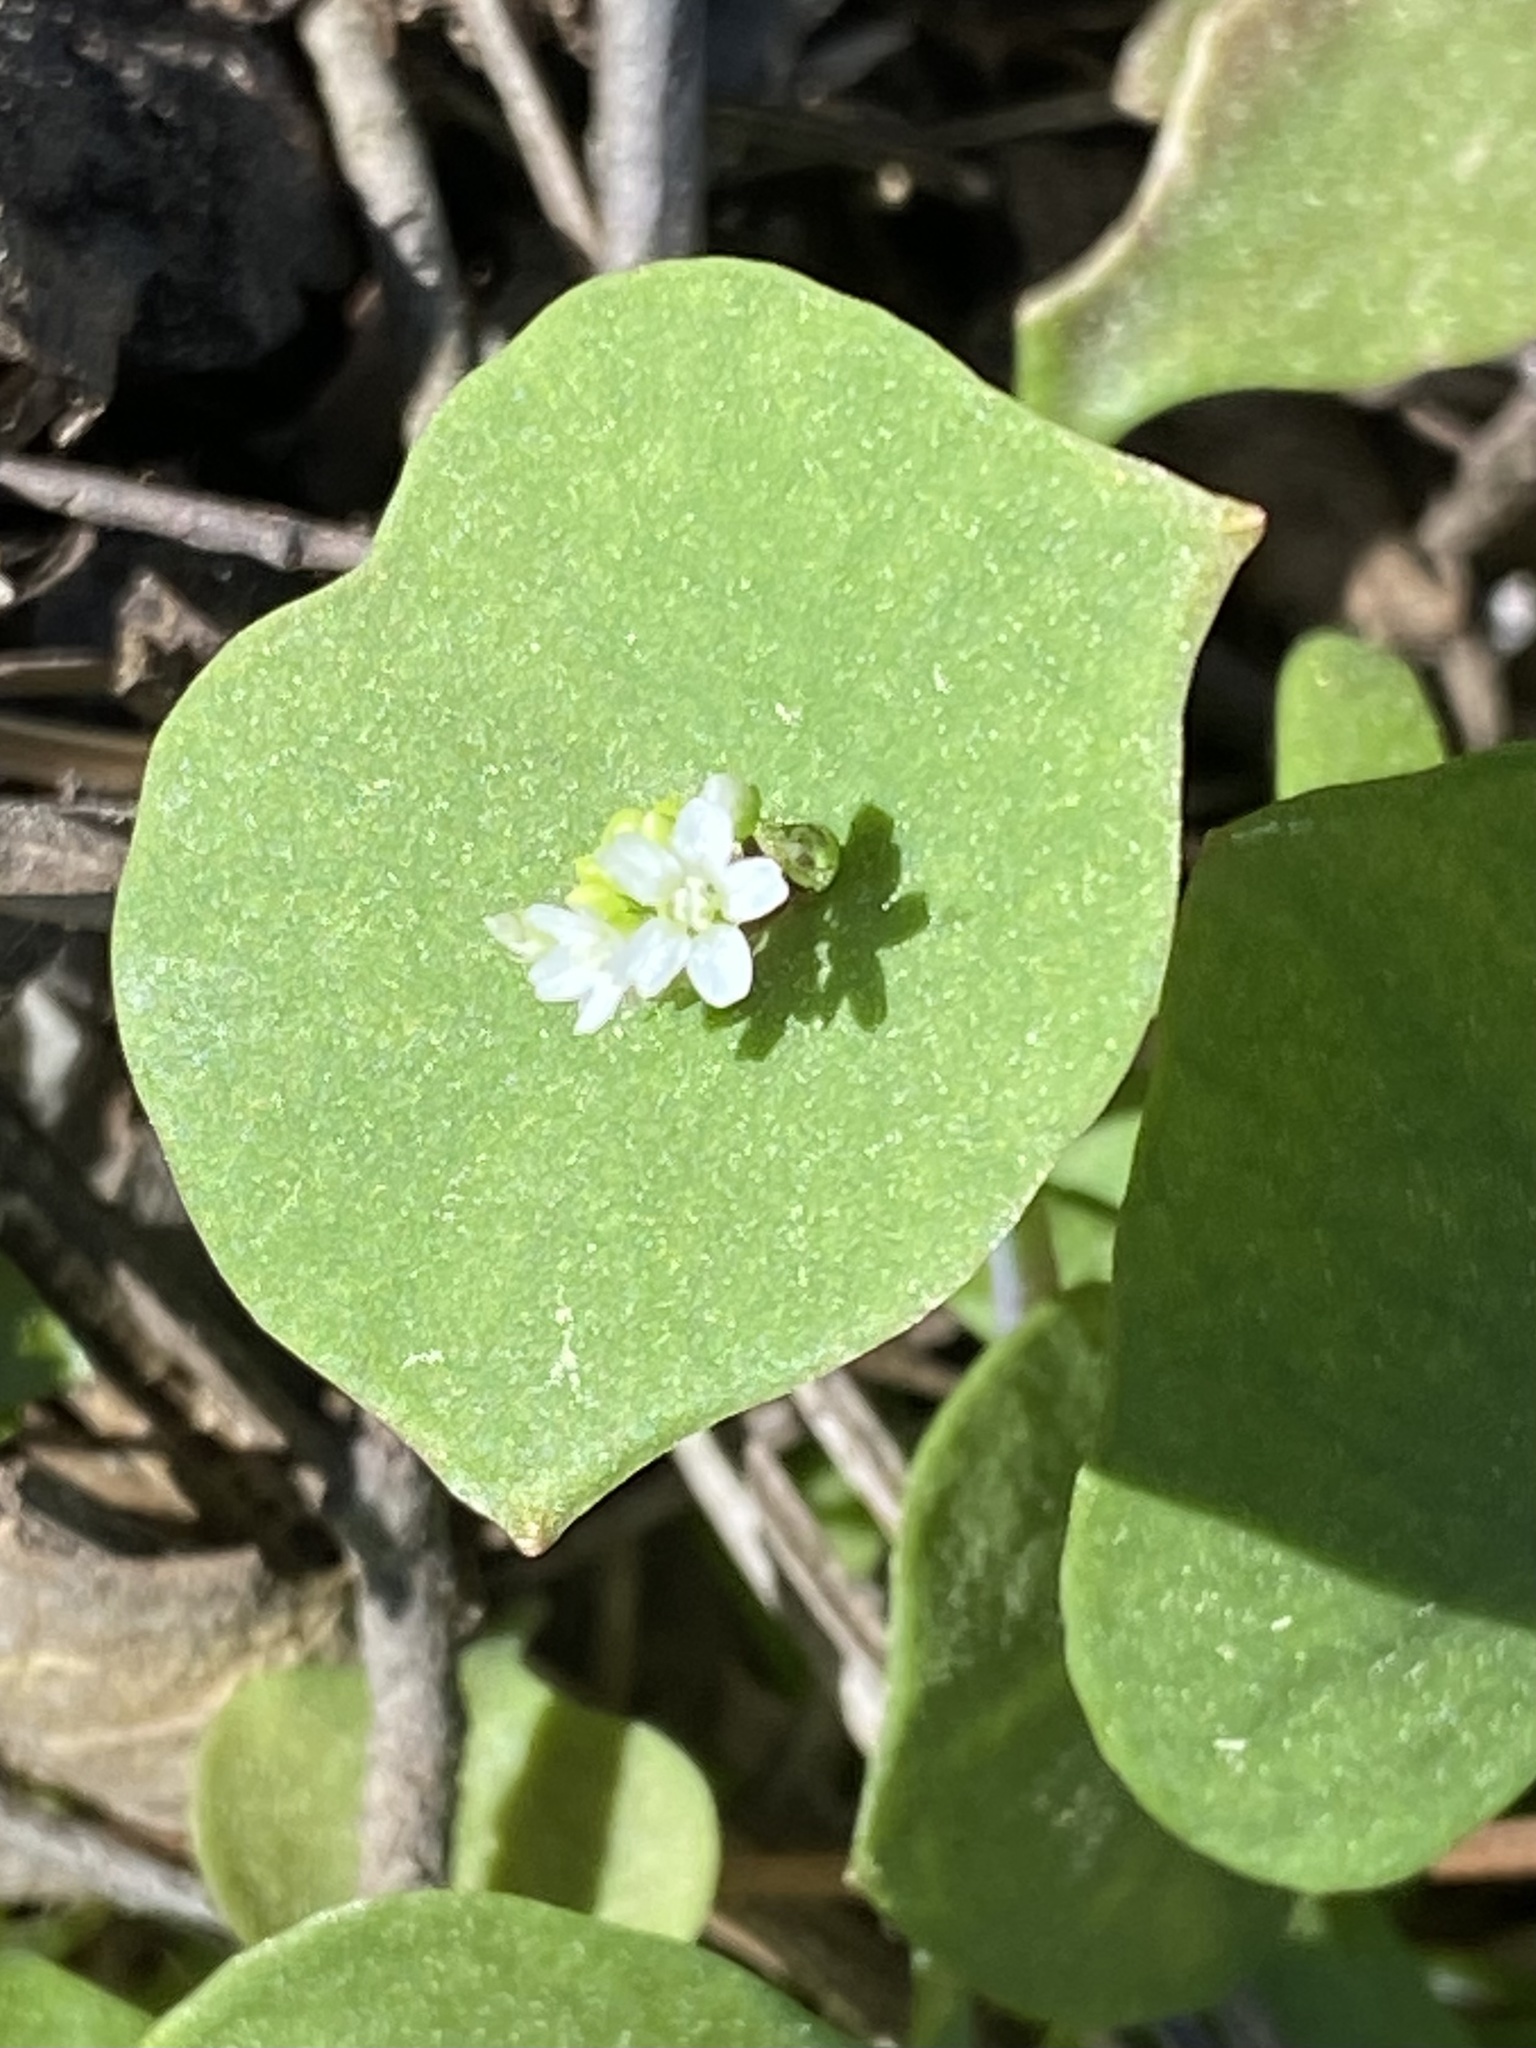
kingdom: Plantae
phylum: Tracheophyta
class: Magnoliopsida
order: Caryophyllales
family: Montiaceae
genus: Claytonia
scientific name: Claytonia perfoliata
